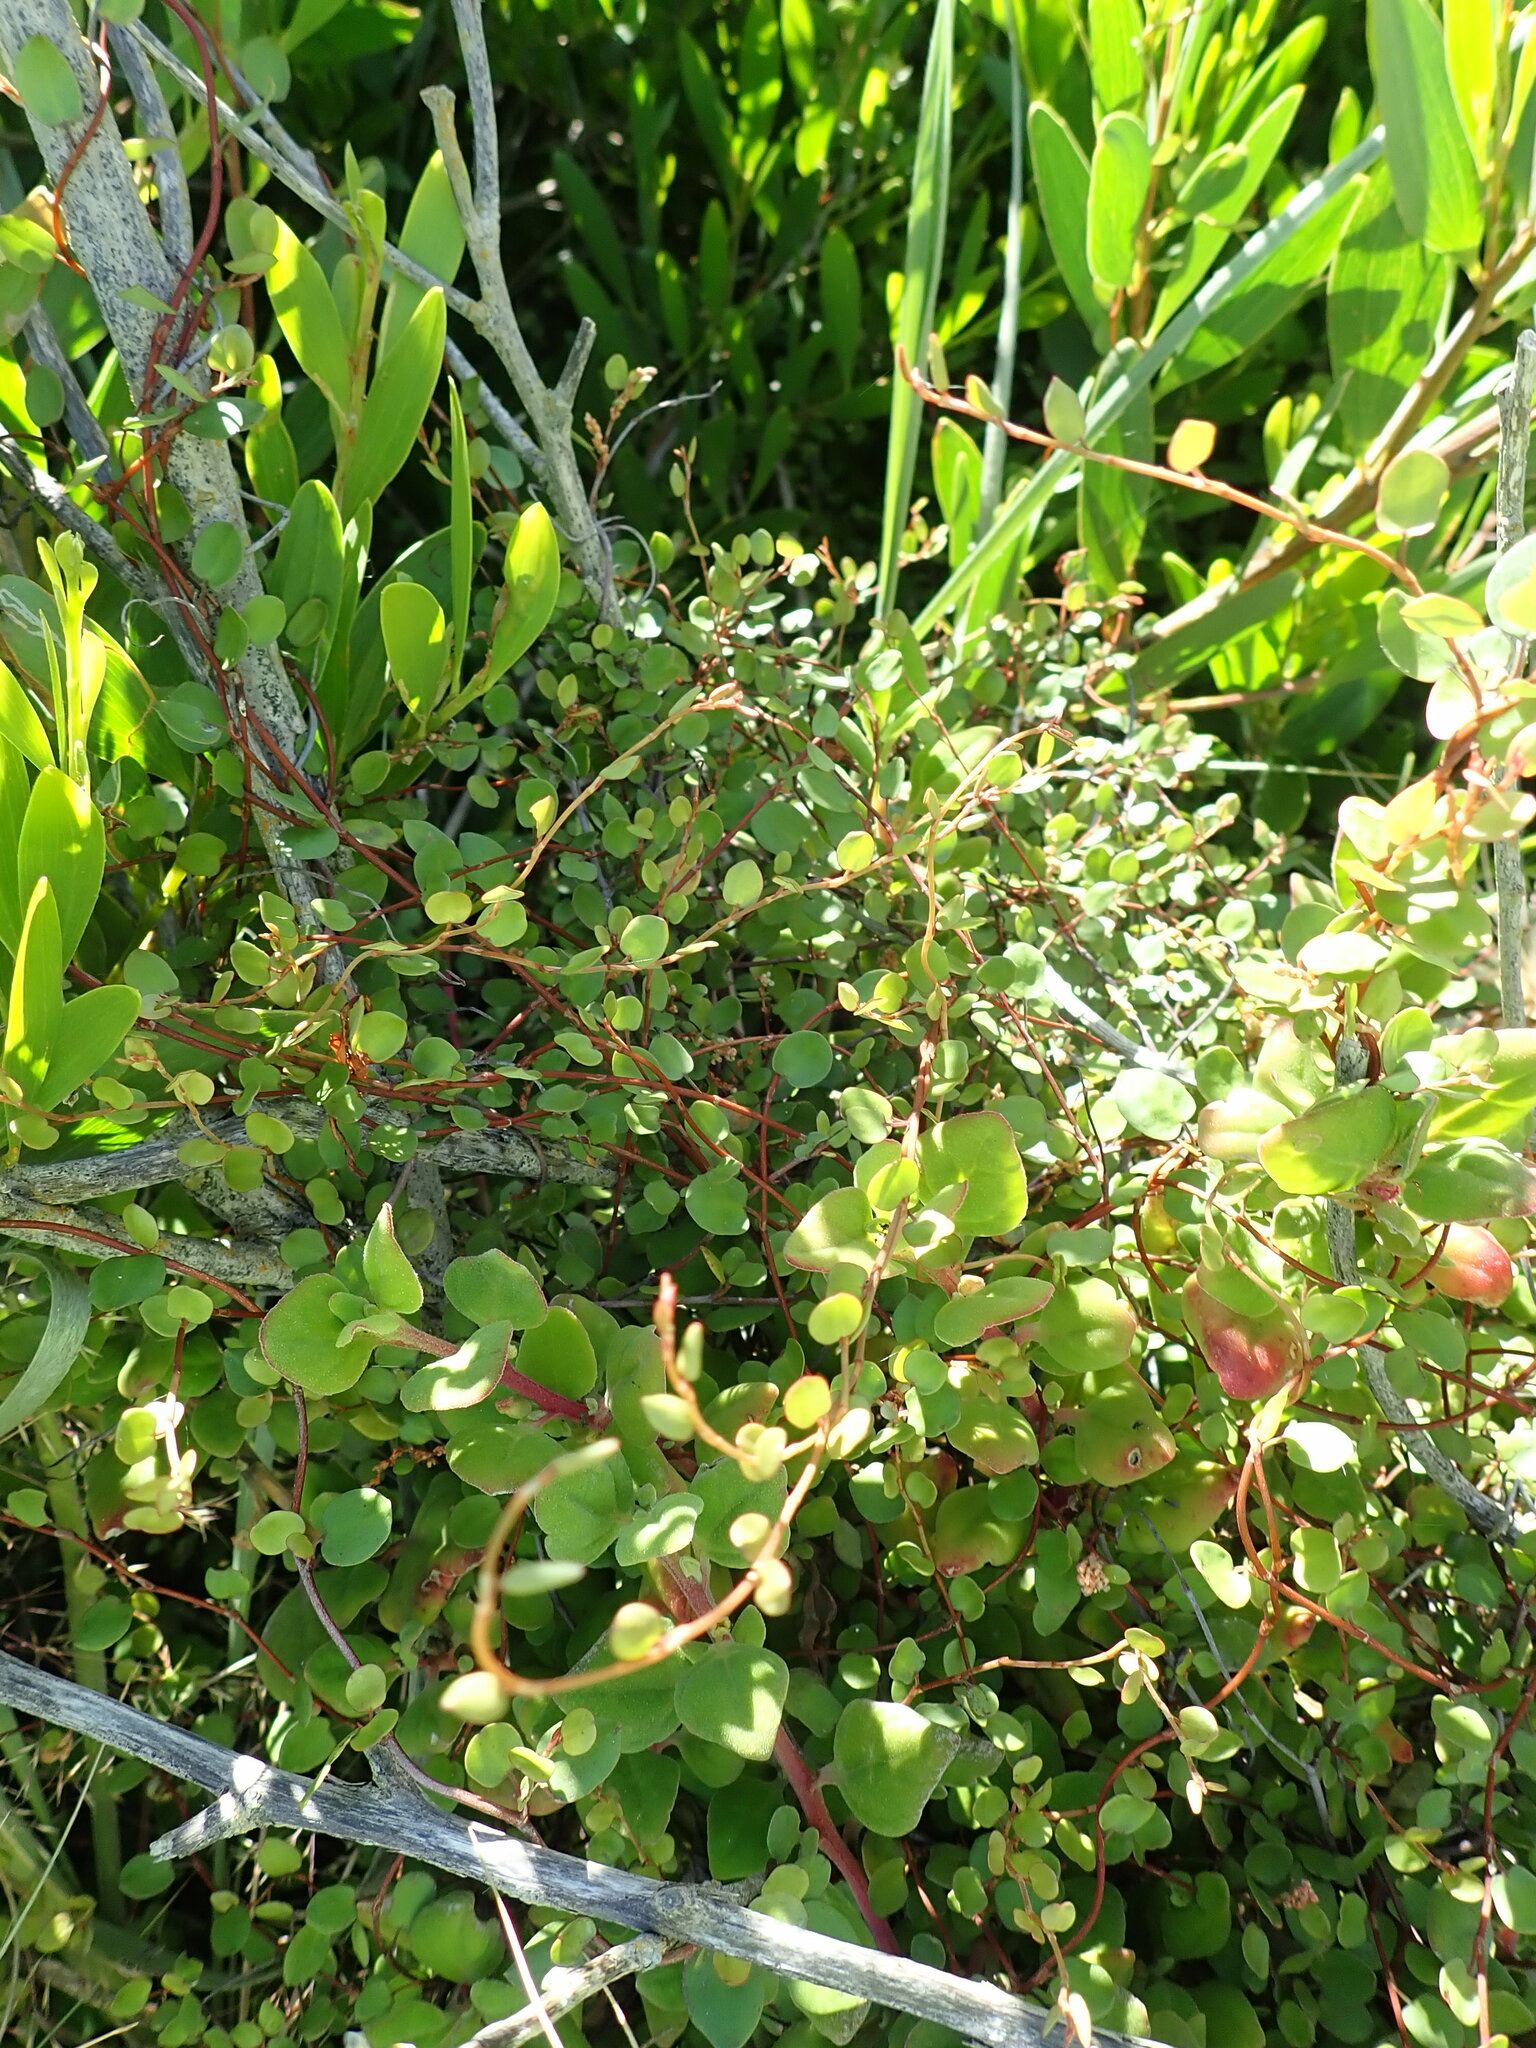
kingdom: Plantae
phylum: Tracheophyta
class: Magnoliopsida
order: Caryophyllales
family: Polygonaceae
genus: Muehlenbeckia
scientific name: Muehlenbeckia complexa
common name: Wireplant
